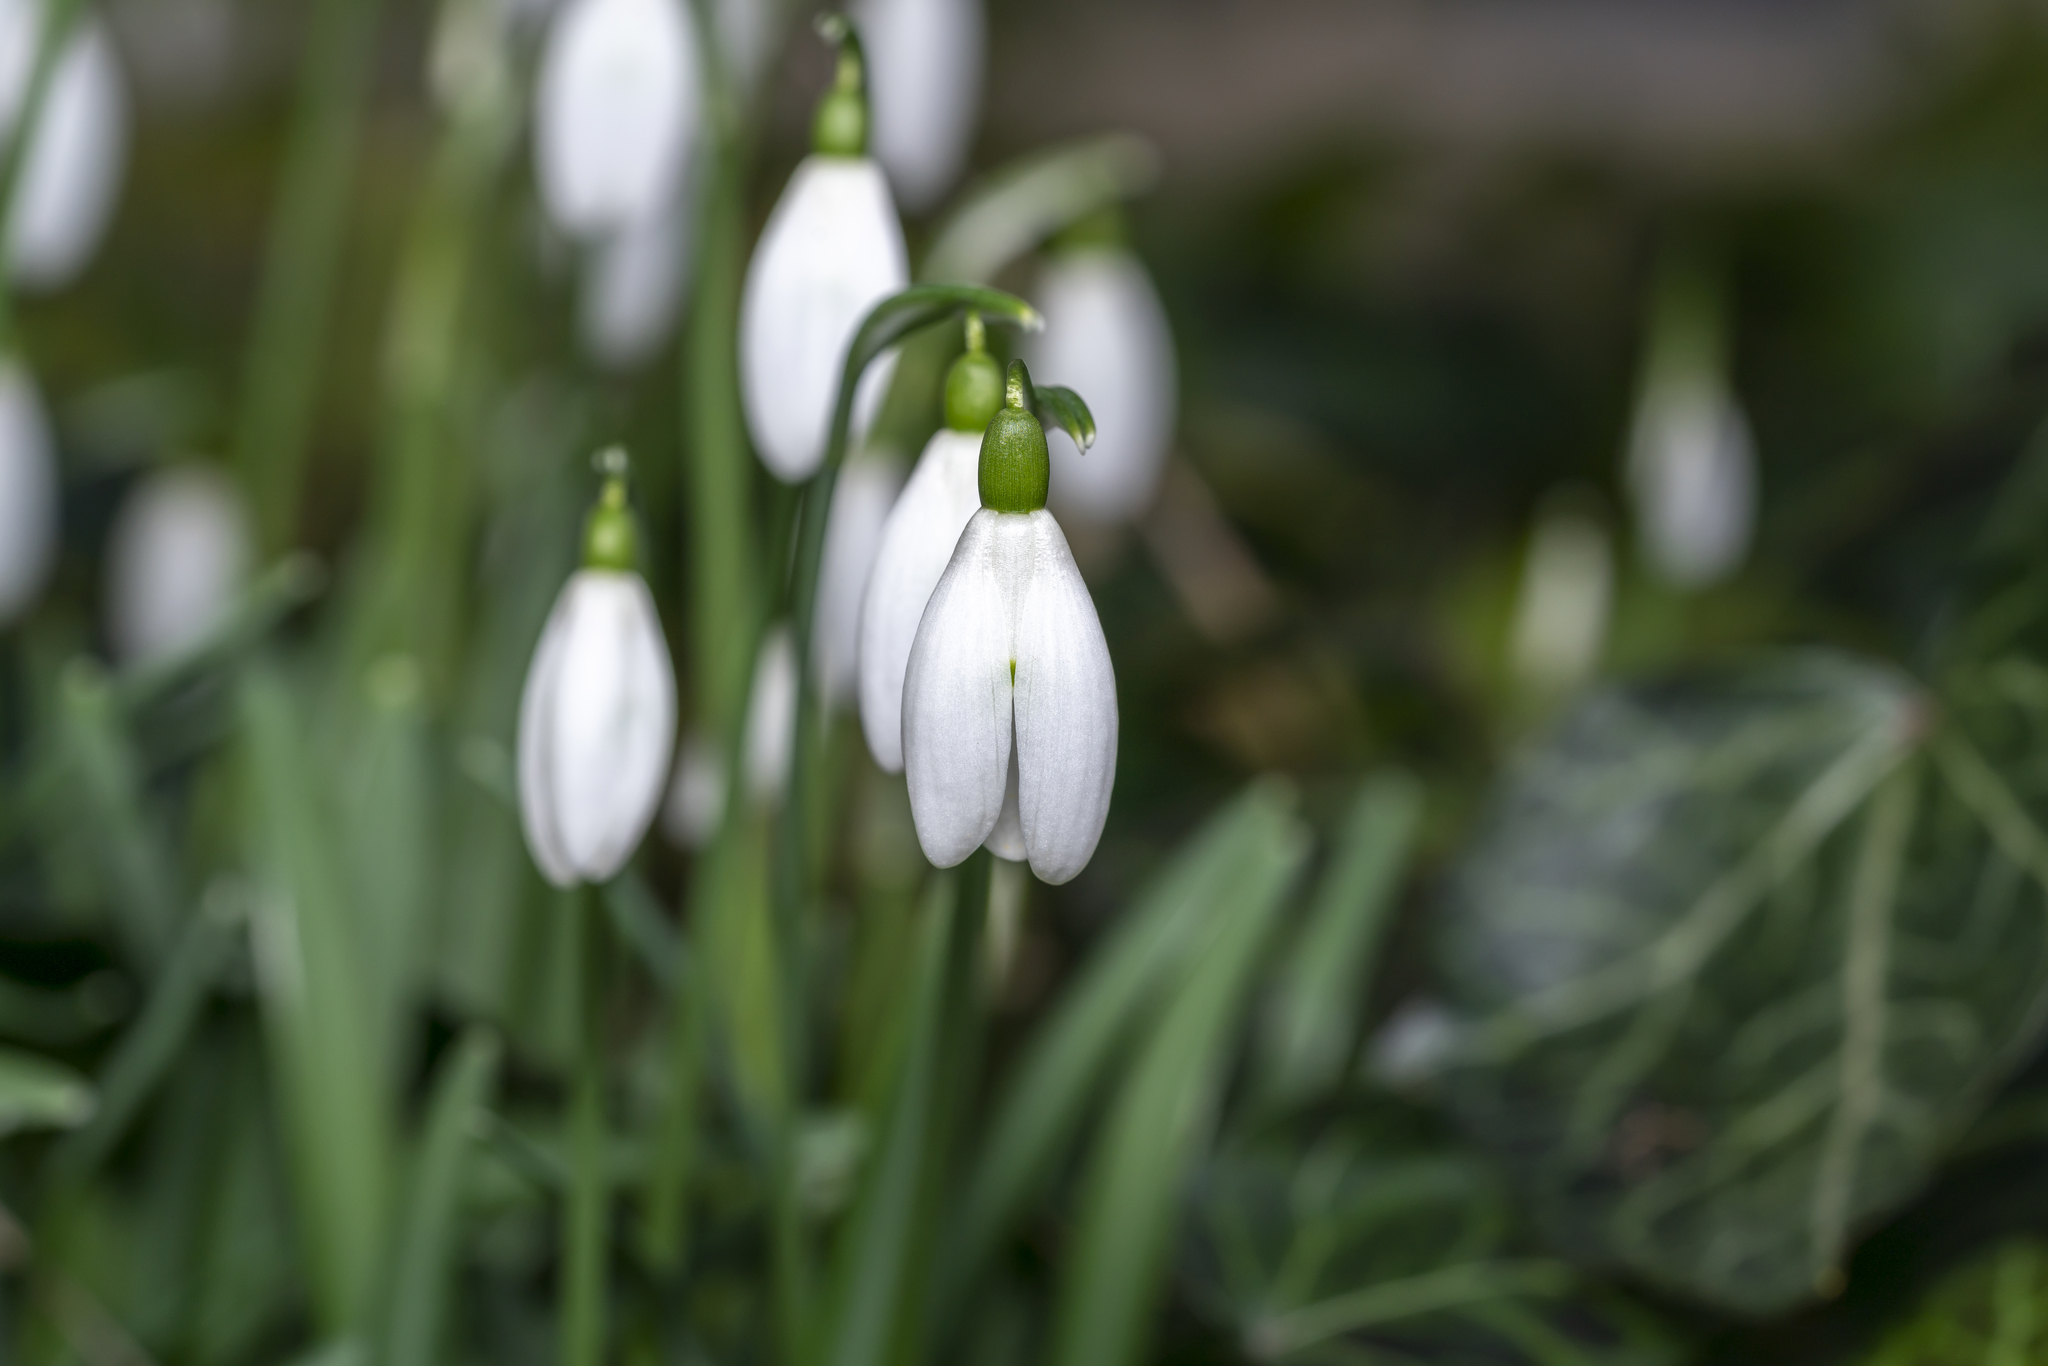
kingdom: Plantae
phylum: Tracheophyta
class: Liliopsida
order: Asparagales
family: Amaryllidaceae
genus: Galanthus
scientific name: Galanthus nivalis
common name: Snowdrop
